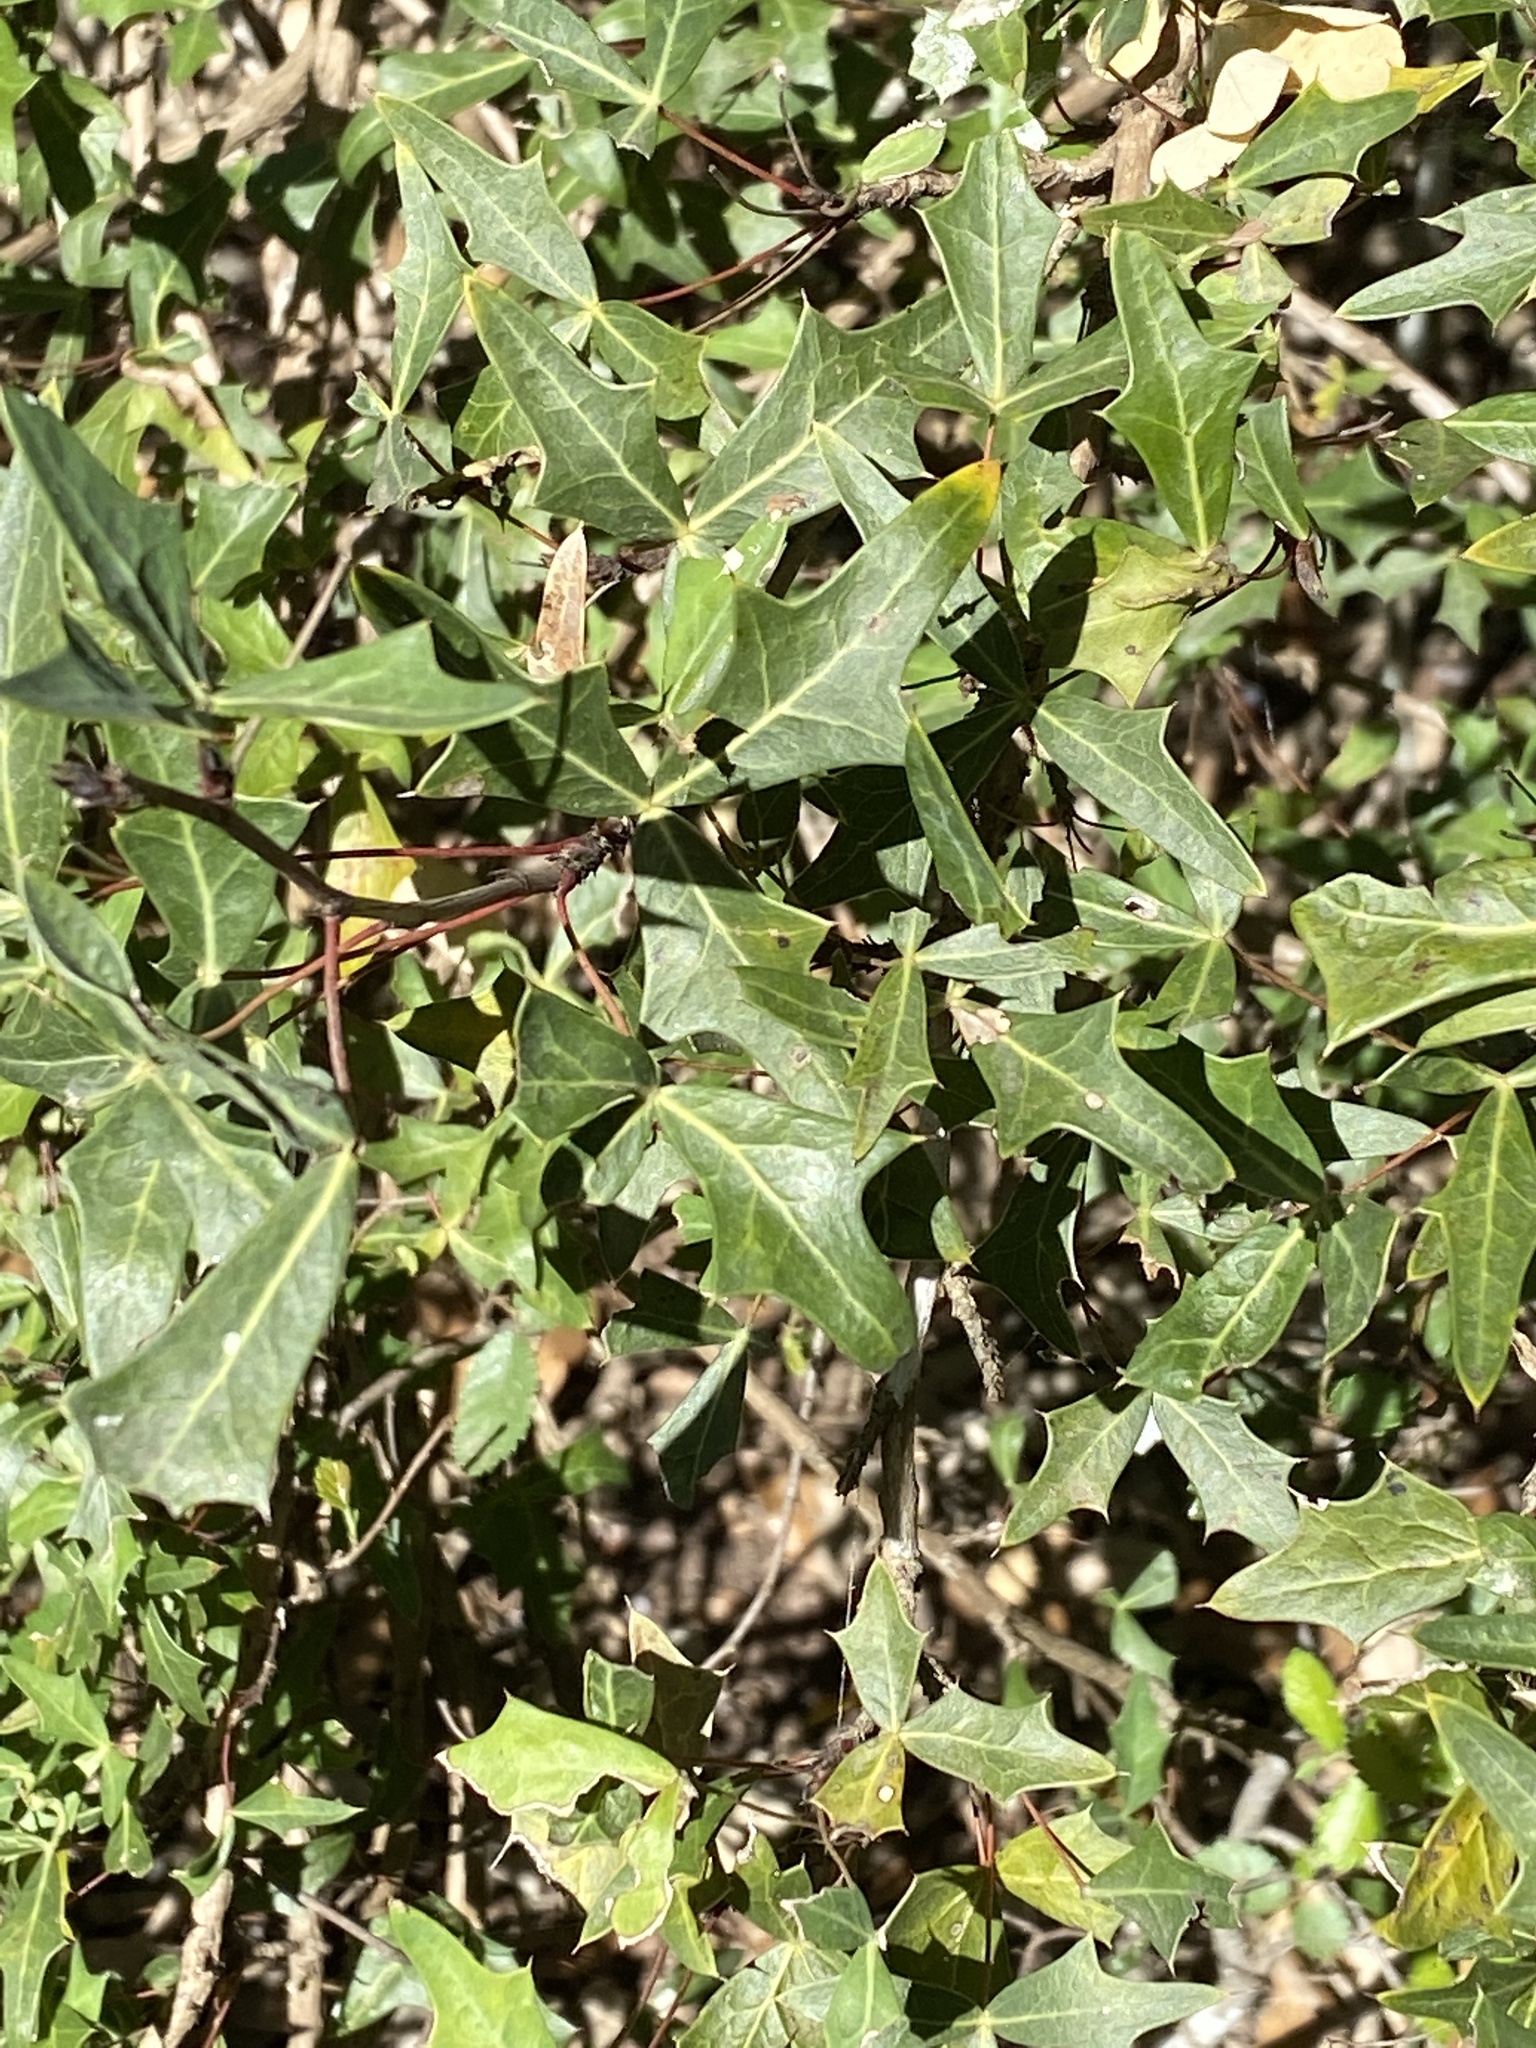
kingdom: Plantae
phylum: Tracheophyta
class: Magnoliopsida
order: Ranunculales
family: Berberidaceae
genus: Alloberberis
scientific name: Alloberberis trifoliolata
